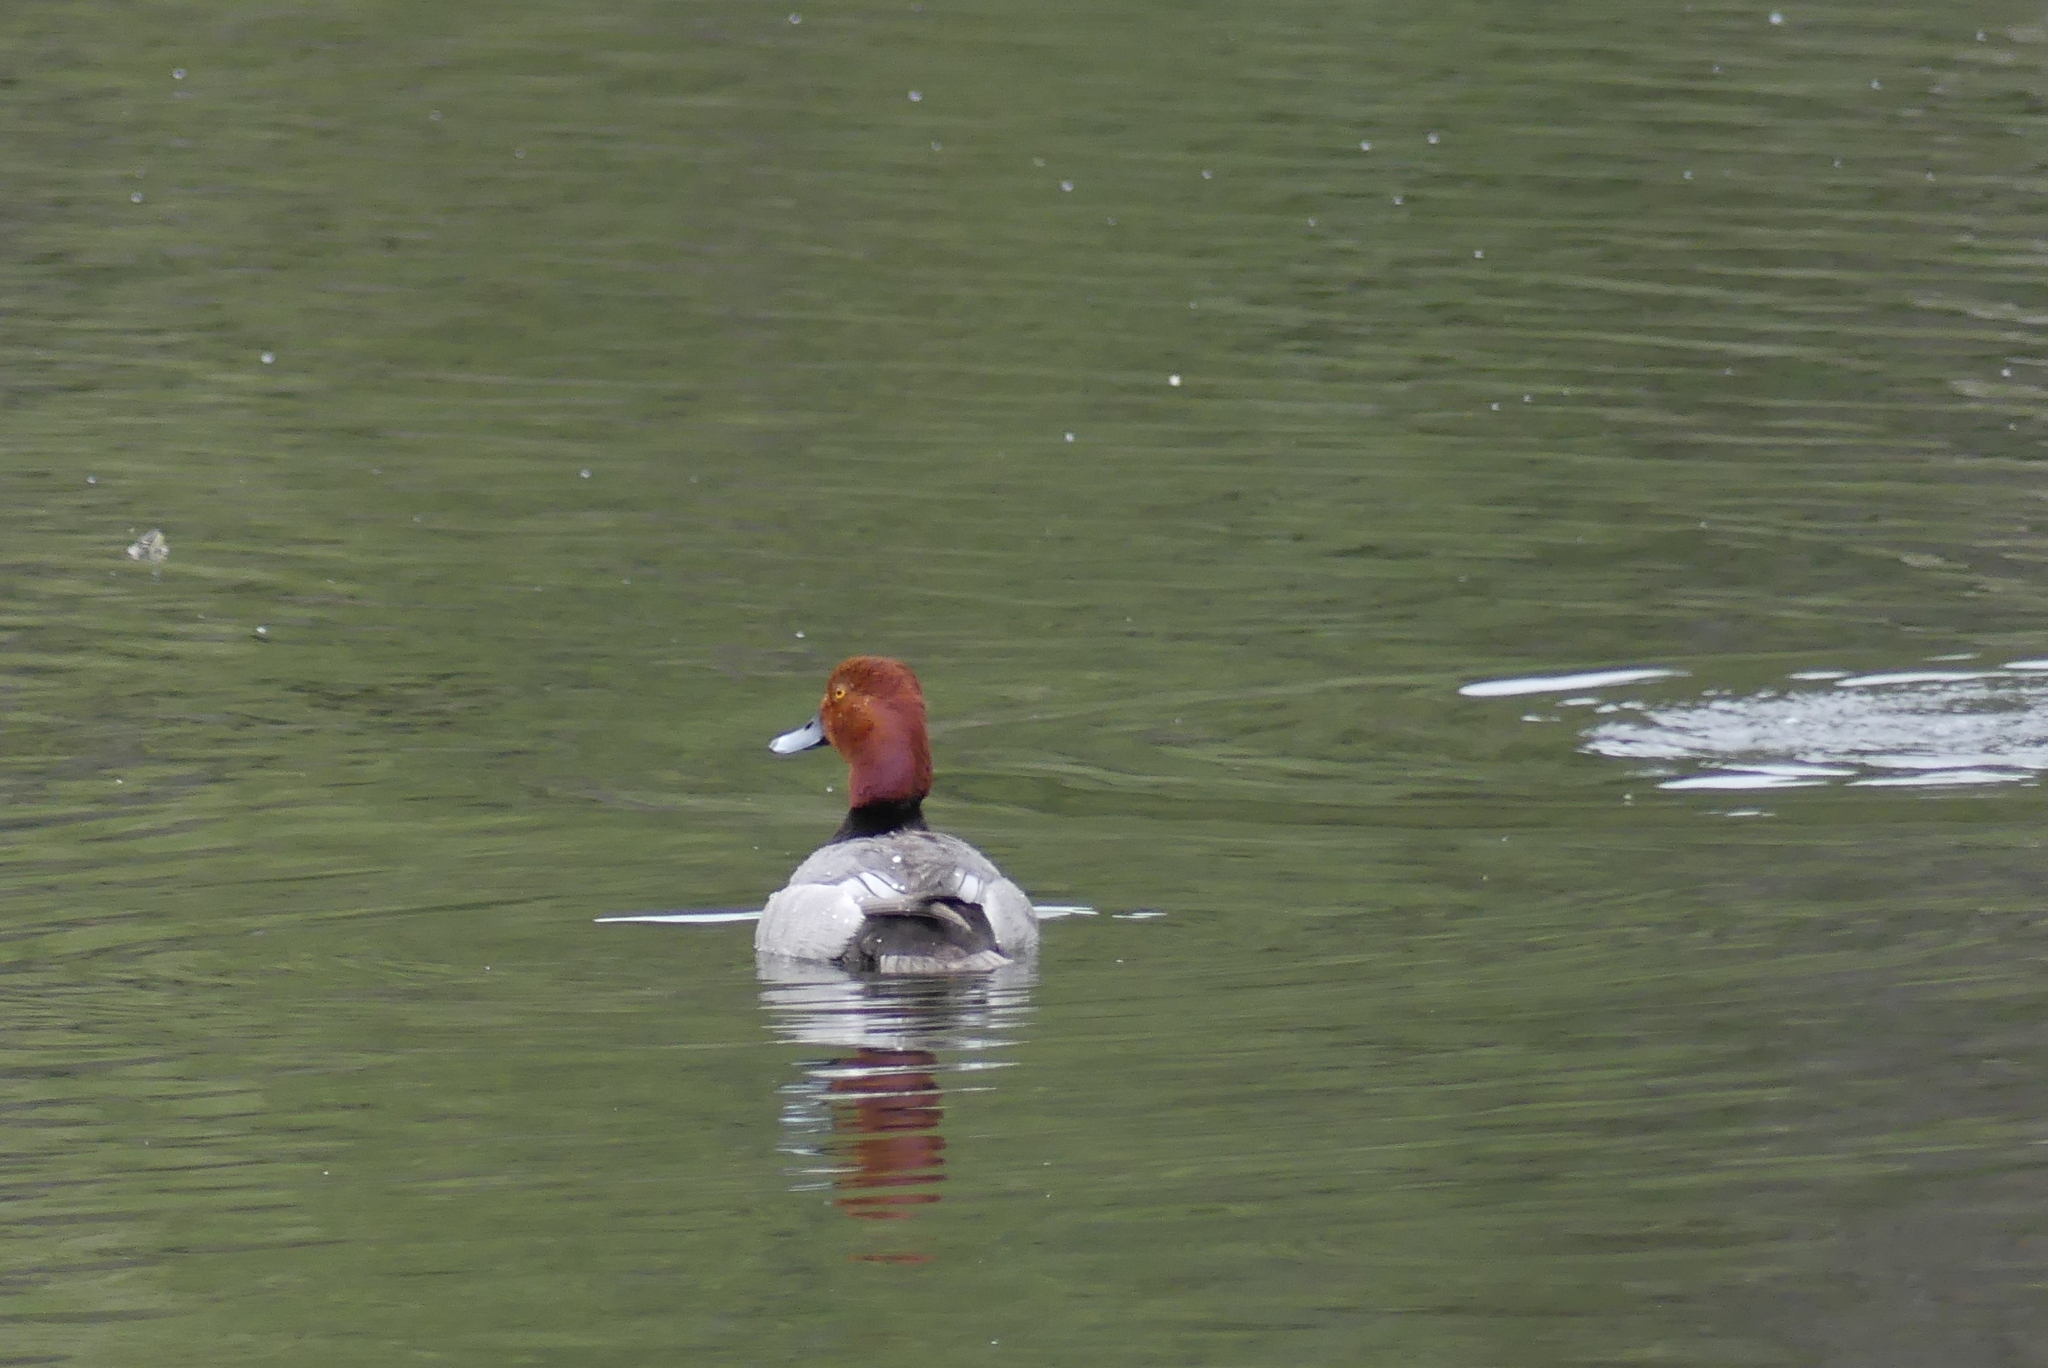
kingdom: Animalia
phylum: Chordata
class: Aves
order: Anseriformes
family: Anatidae
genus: Aythya
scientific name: Aythya americana
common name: Redhead
